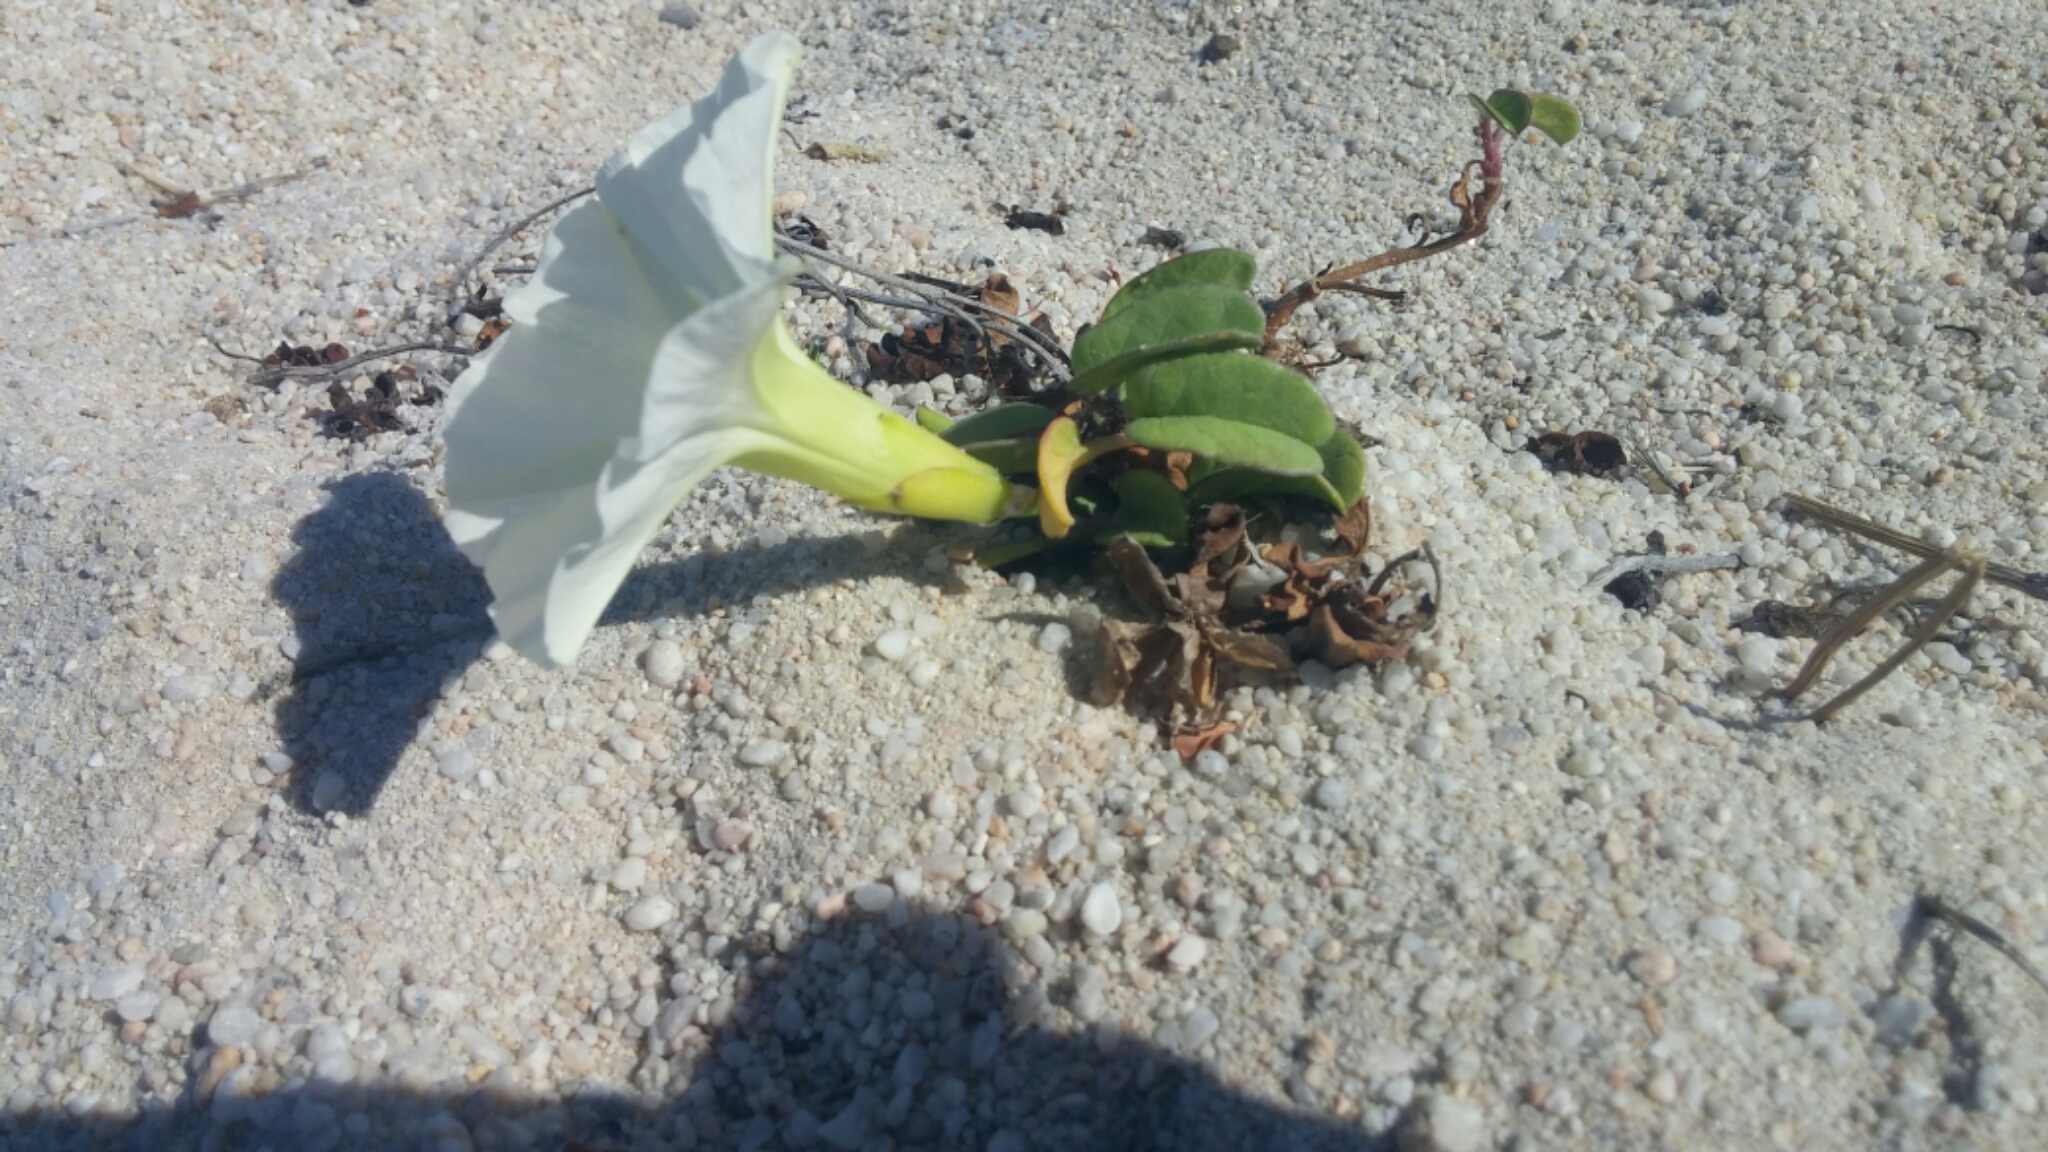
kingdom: Plantae
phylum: Tracheophyta
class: Magnoliopsida
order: Solanales
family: Convolvulaceae
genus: Ipomoea
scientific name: Ipomoea imperati
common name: Fiddle-leaf morning-glory
